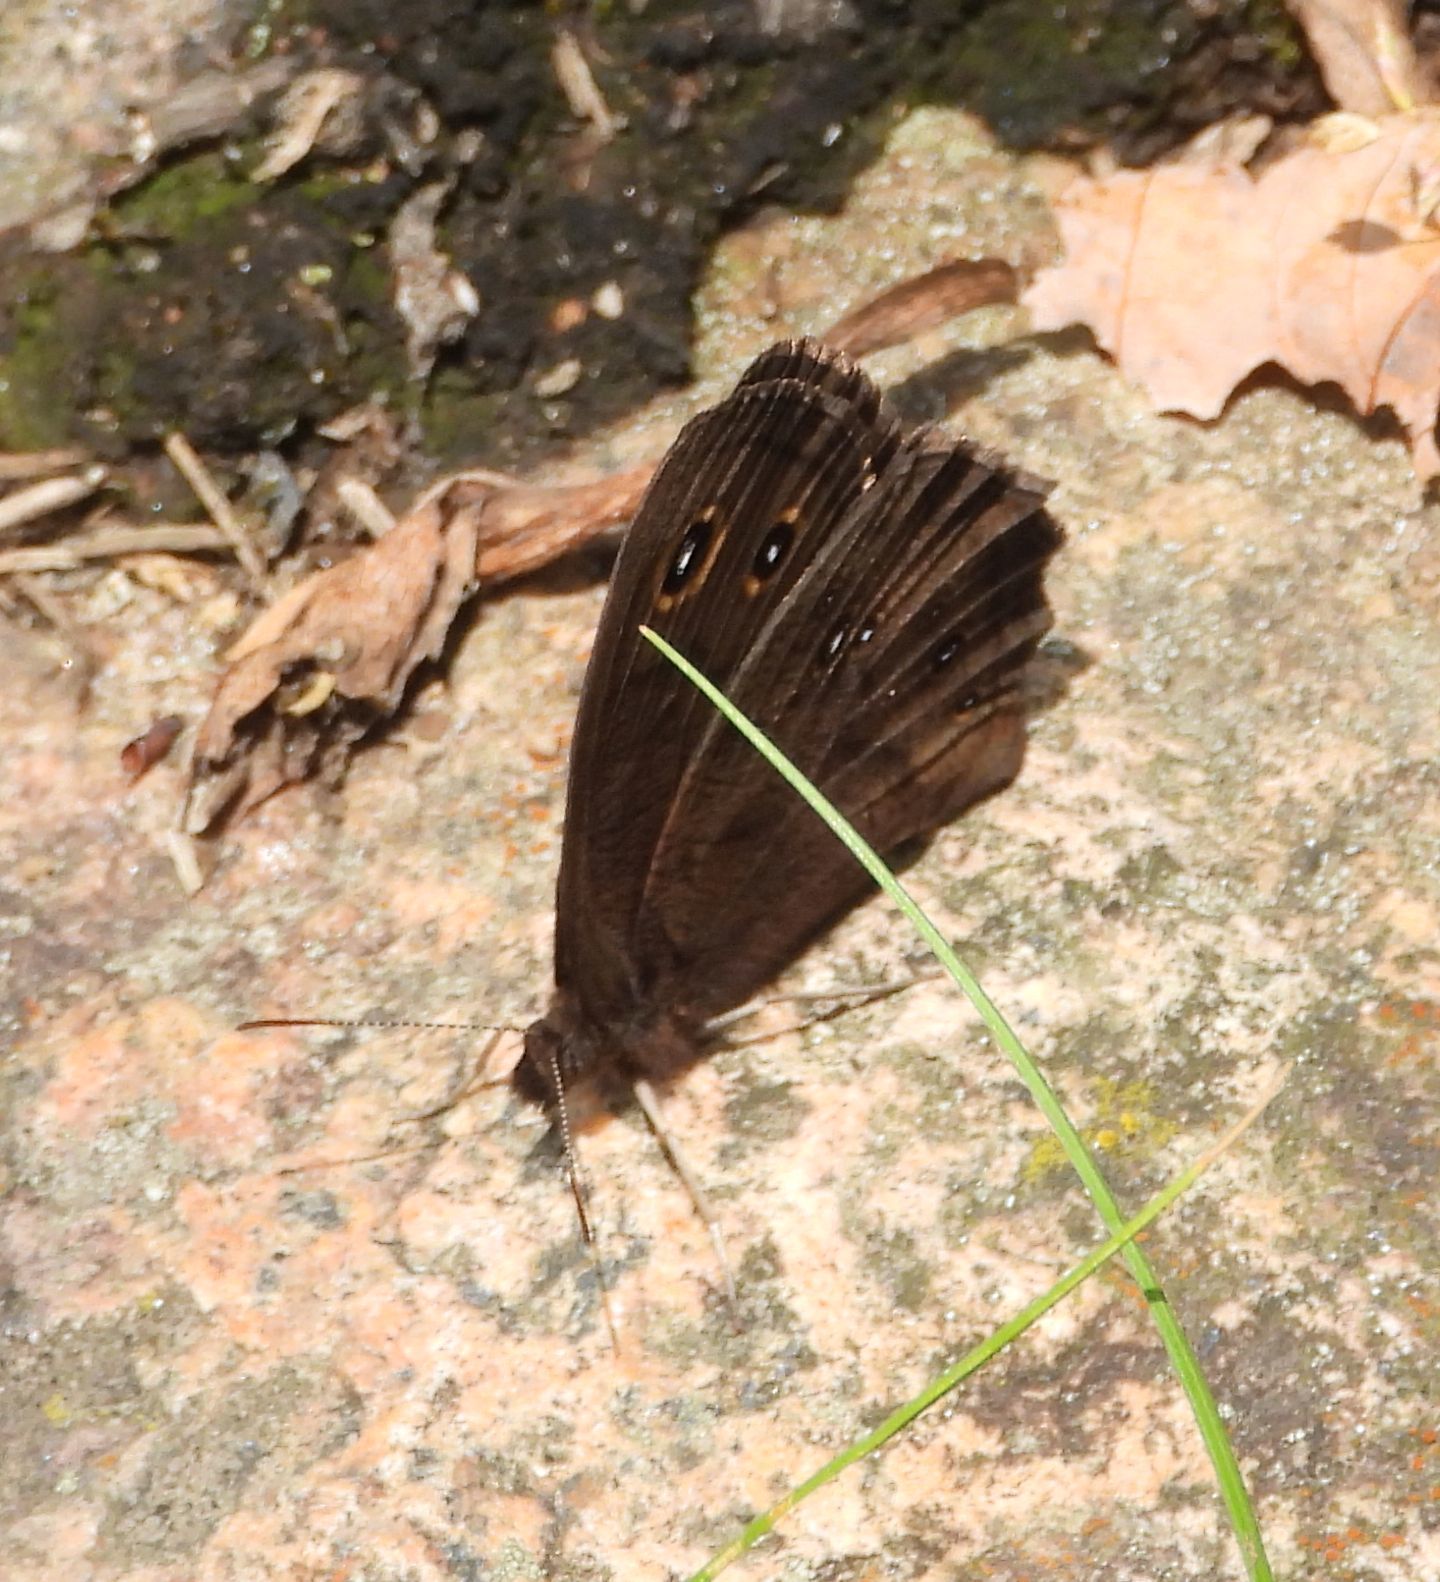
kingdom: Animalia
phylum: Arthropoda
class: Insecta
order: Lepidoptera
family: Nymphalidae
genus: Cercyonis
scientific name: Cercyonis pegala
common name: Common wood-nymph
